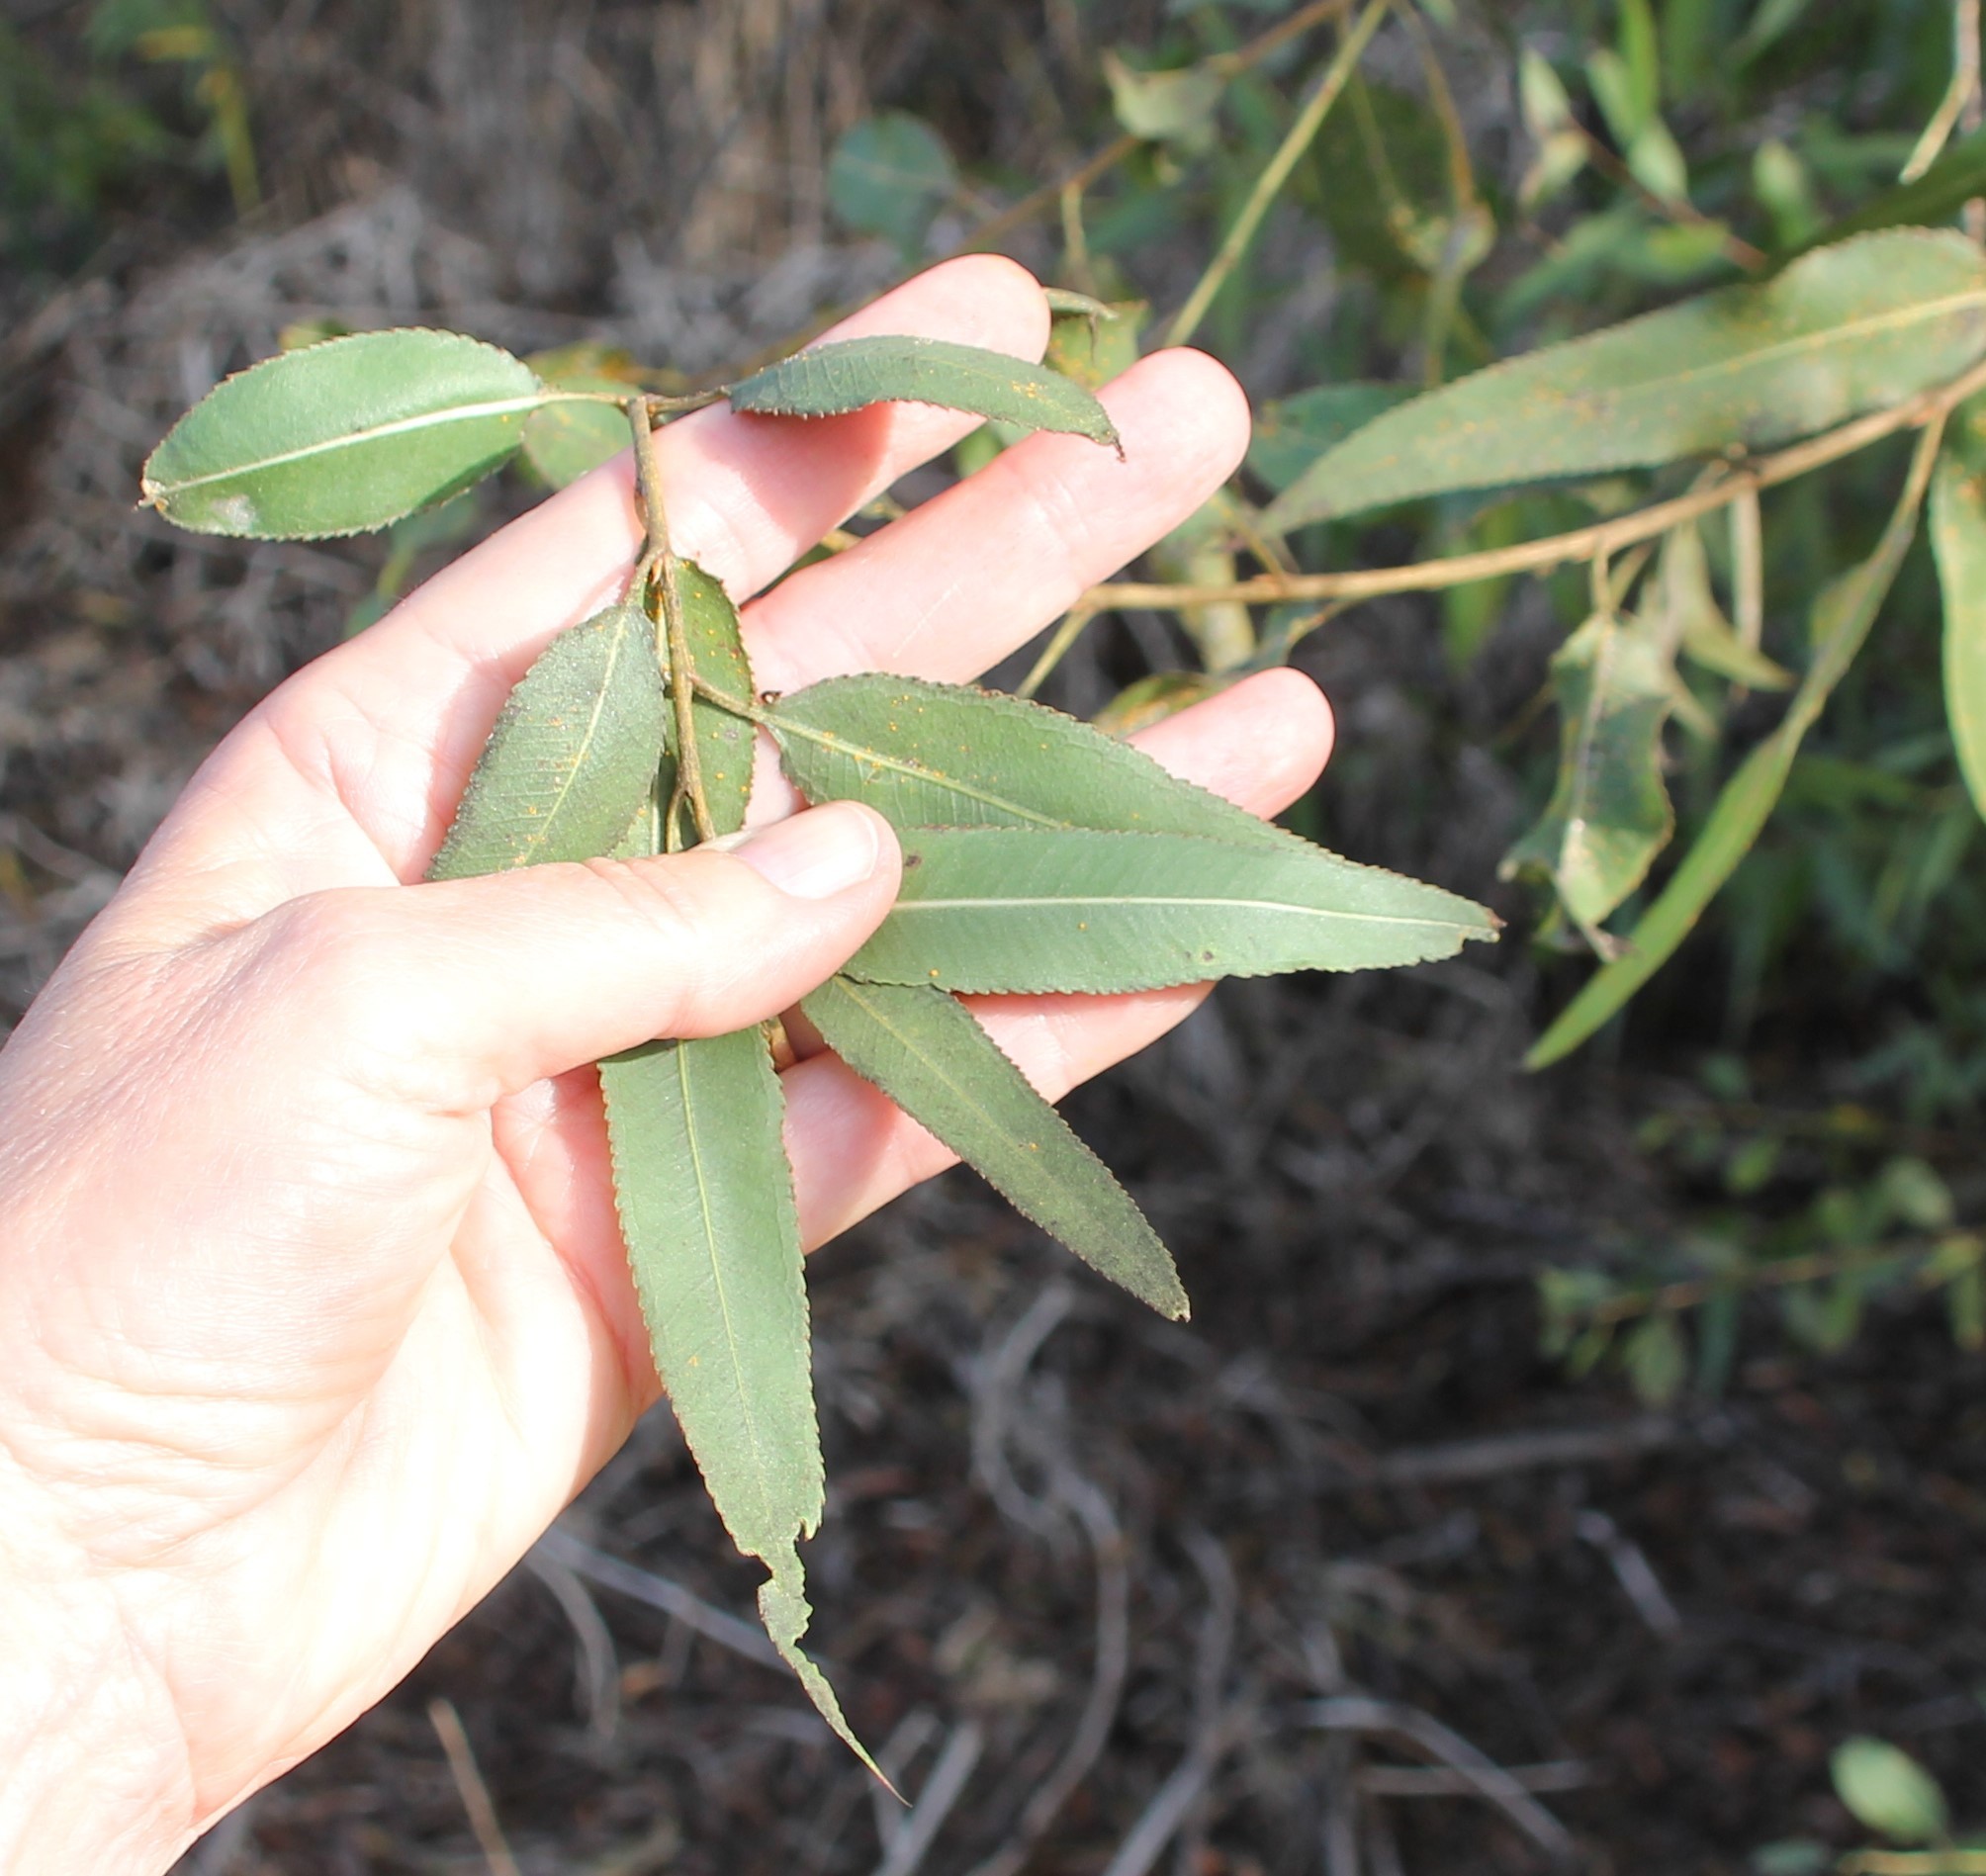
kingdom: Plantae
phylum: Tracheophyta
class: Magnoliopsida
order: Malpighiales
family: Salicaceae
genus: Salix
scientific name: Salix gooddingii
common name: Goodding's willow
